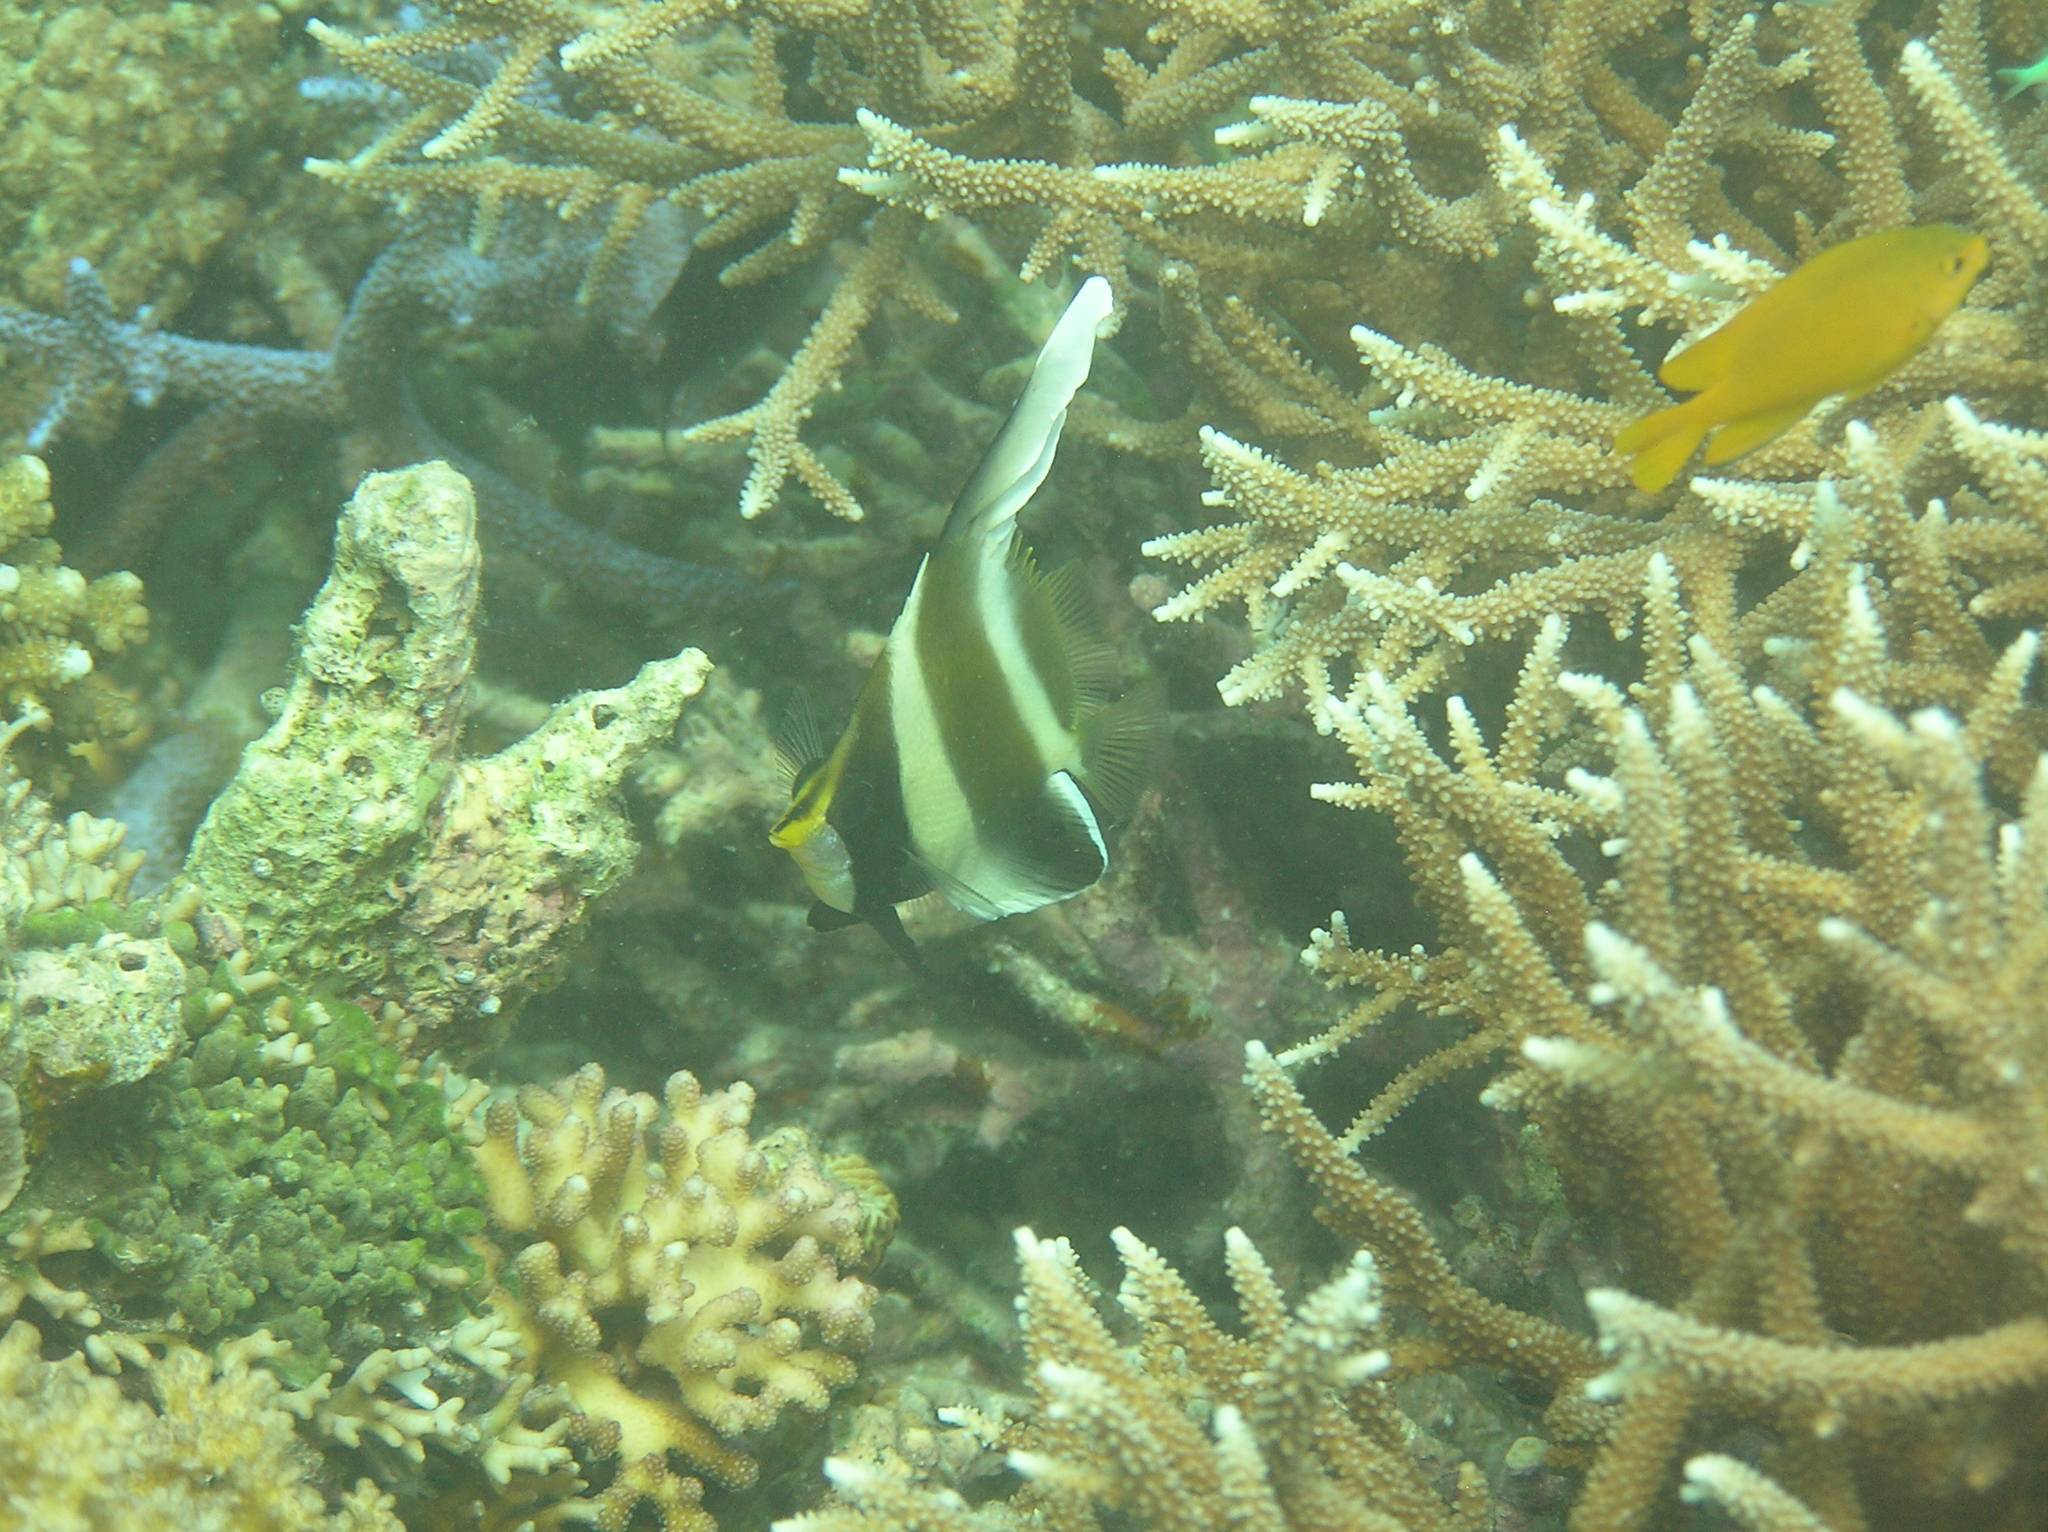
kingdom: Animalia
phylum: Chordata
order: Perciformes
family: Chaetodontidae
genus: Heniochus
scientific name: Heniochus chrysostomus
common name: Horned bannerfish
